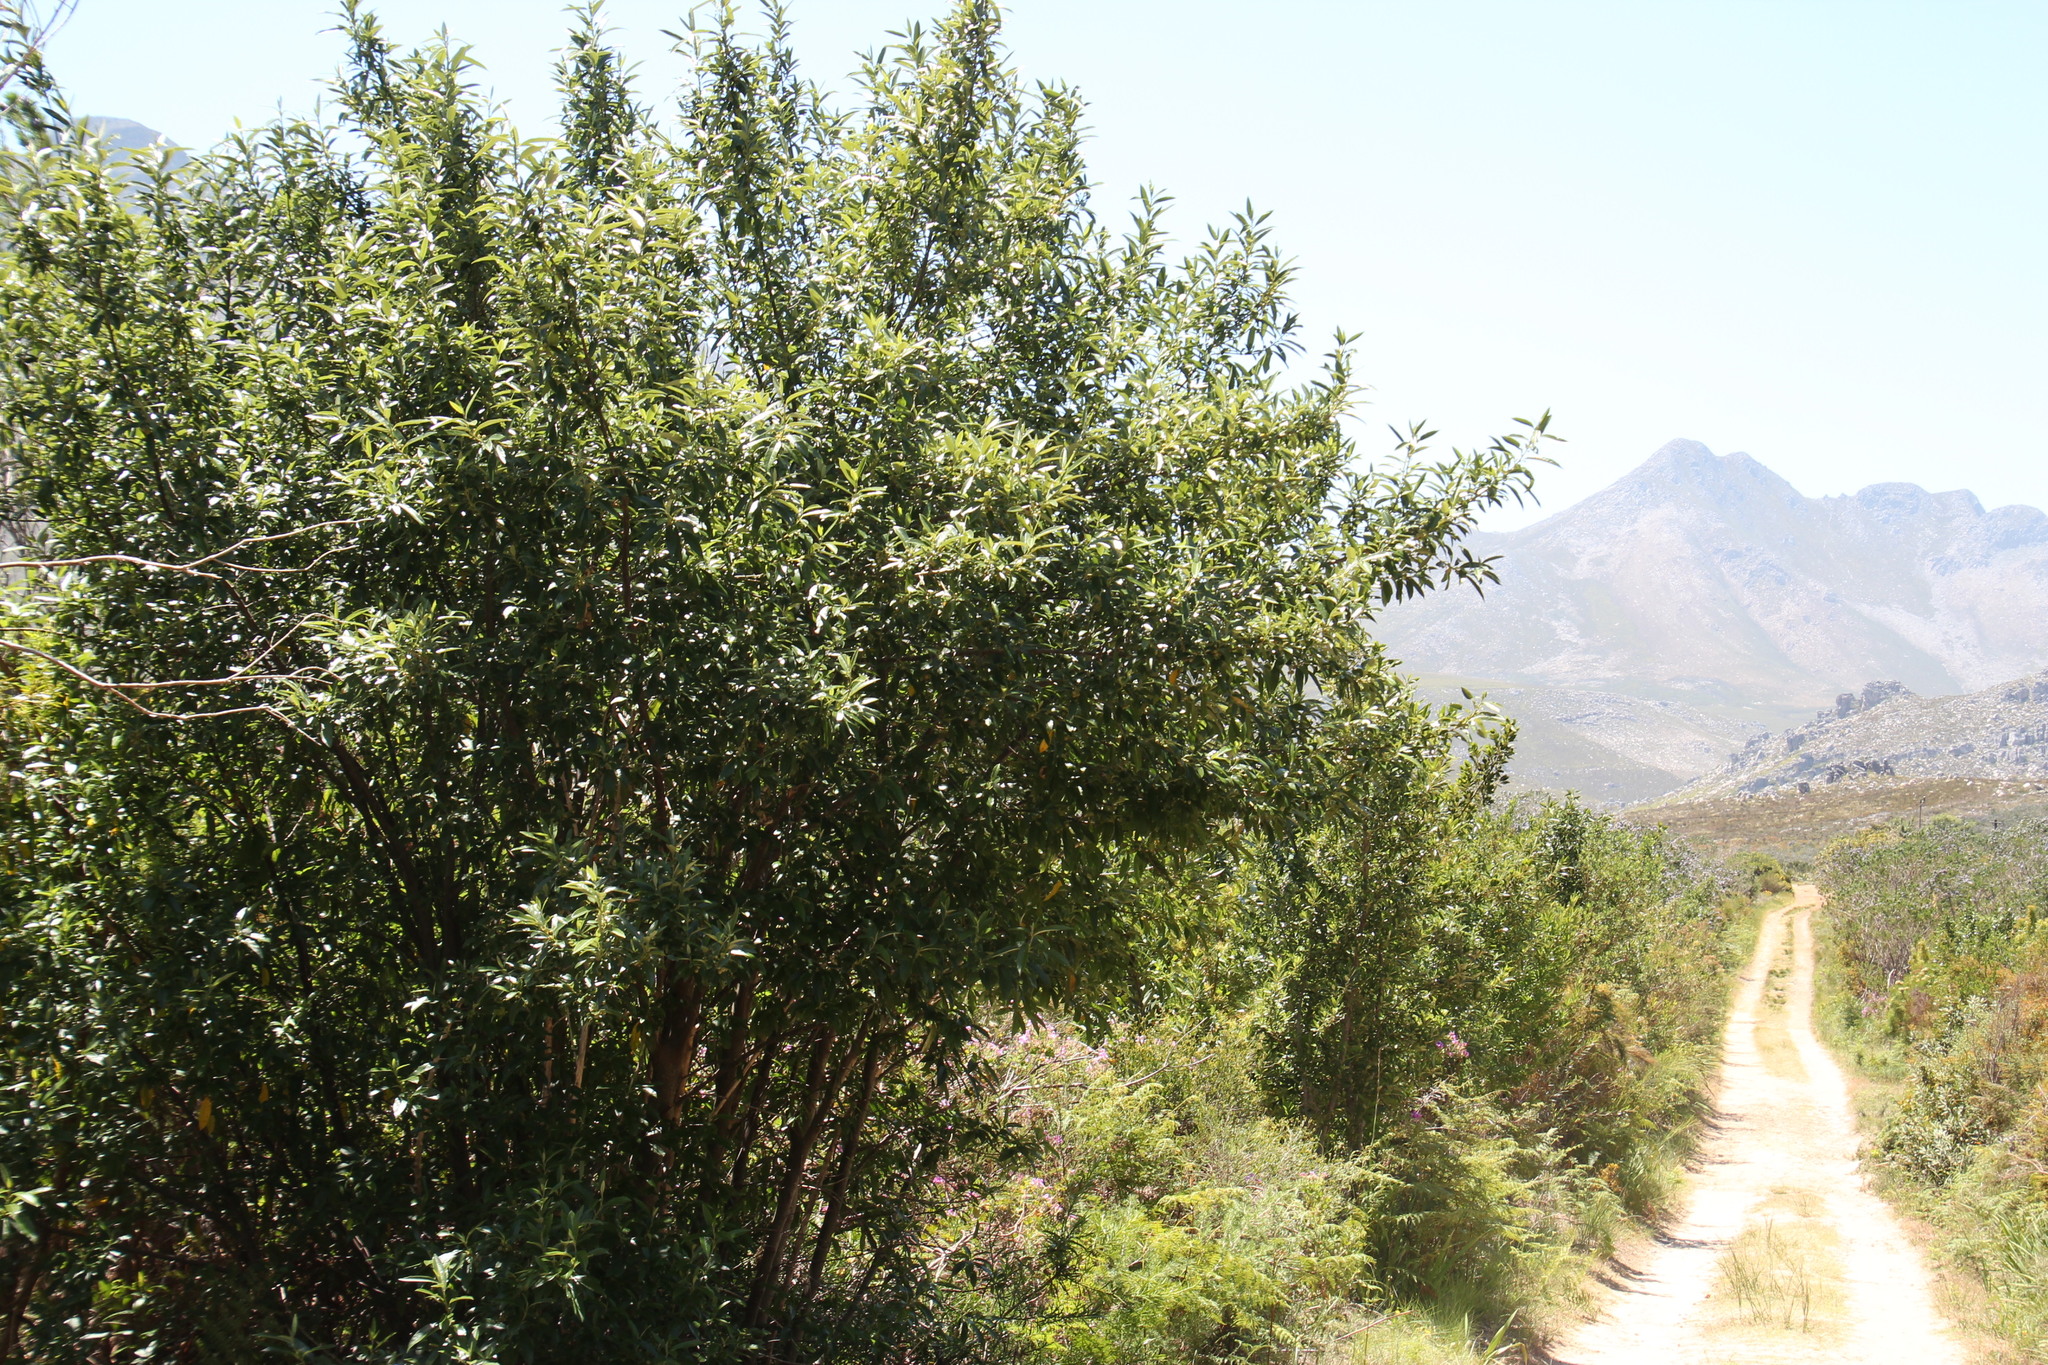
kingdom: Plantae
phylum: Tracheophyta
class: Magnoliopsida
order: Malpighiales
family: Achariaceae
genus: Kiggelaria
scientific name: Kiggelaria africana
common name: Wild peach
